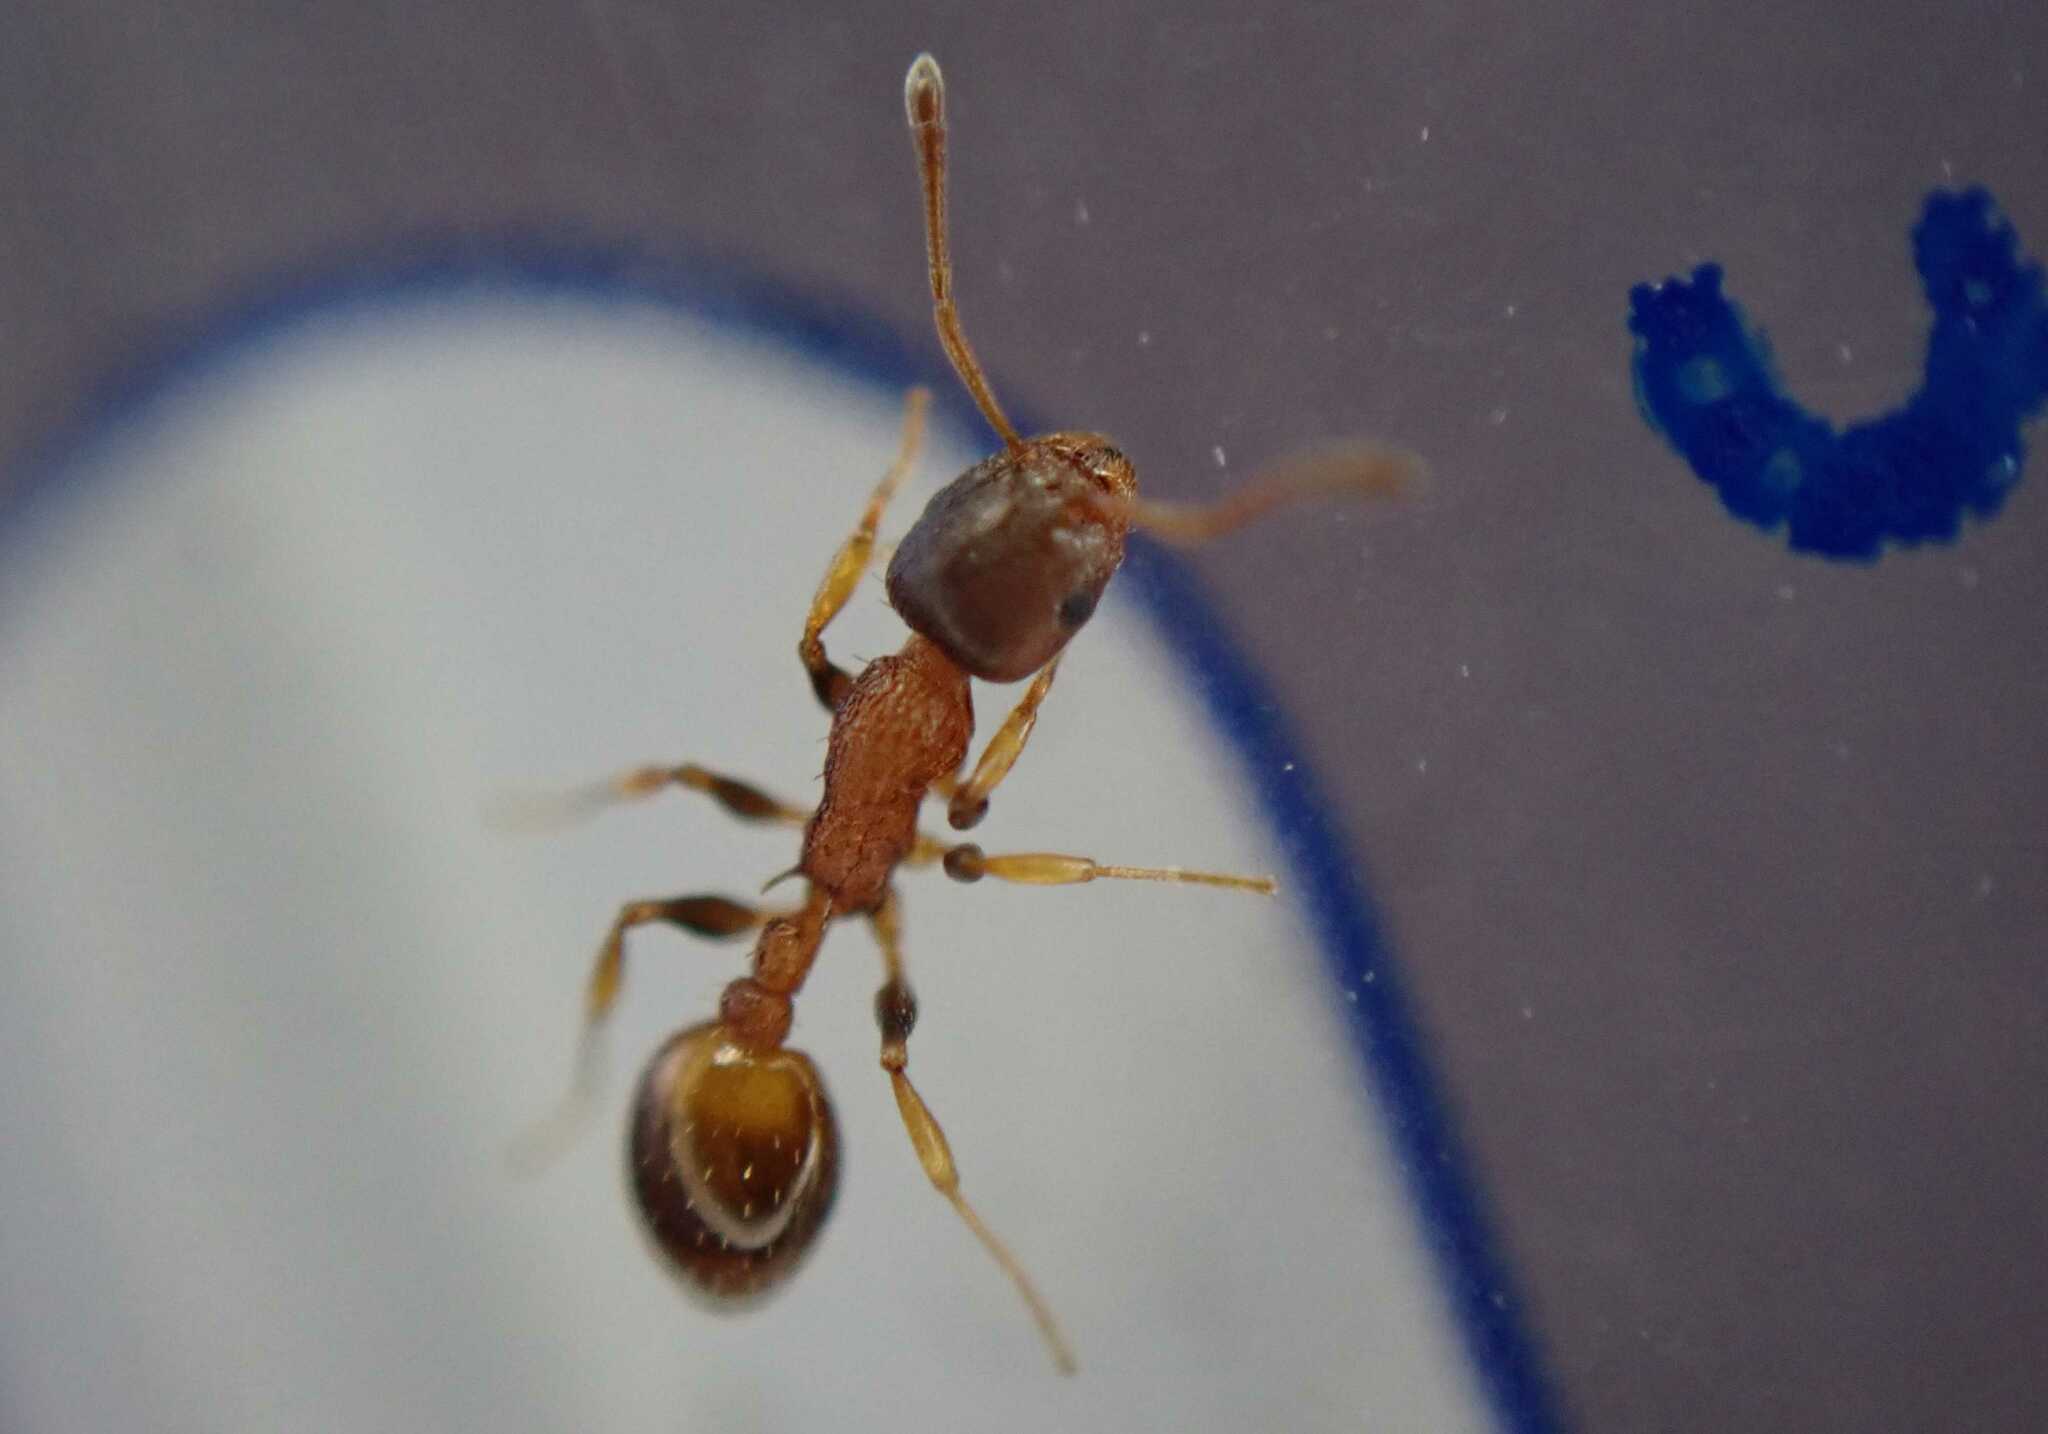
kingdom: Animalia
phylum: Arthropoda
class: Insecta
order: Hymenoptera
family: Formicidae
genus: Temnothorax
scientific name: Temnothorax
